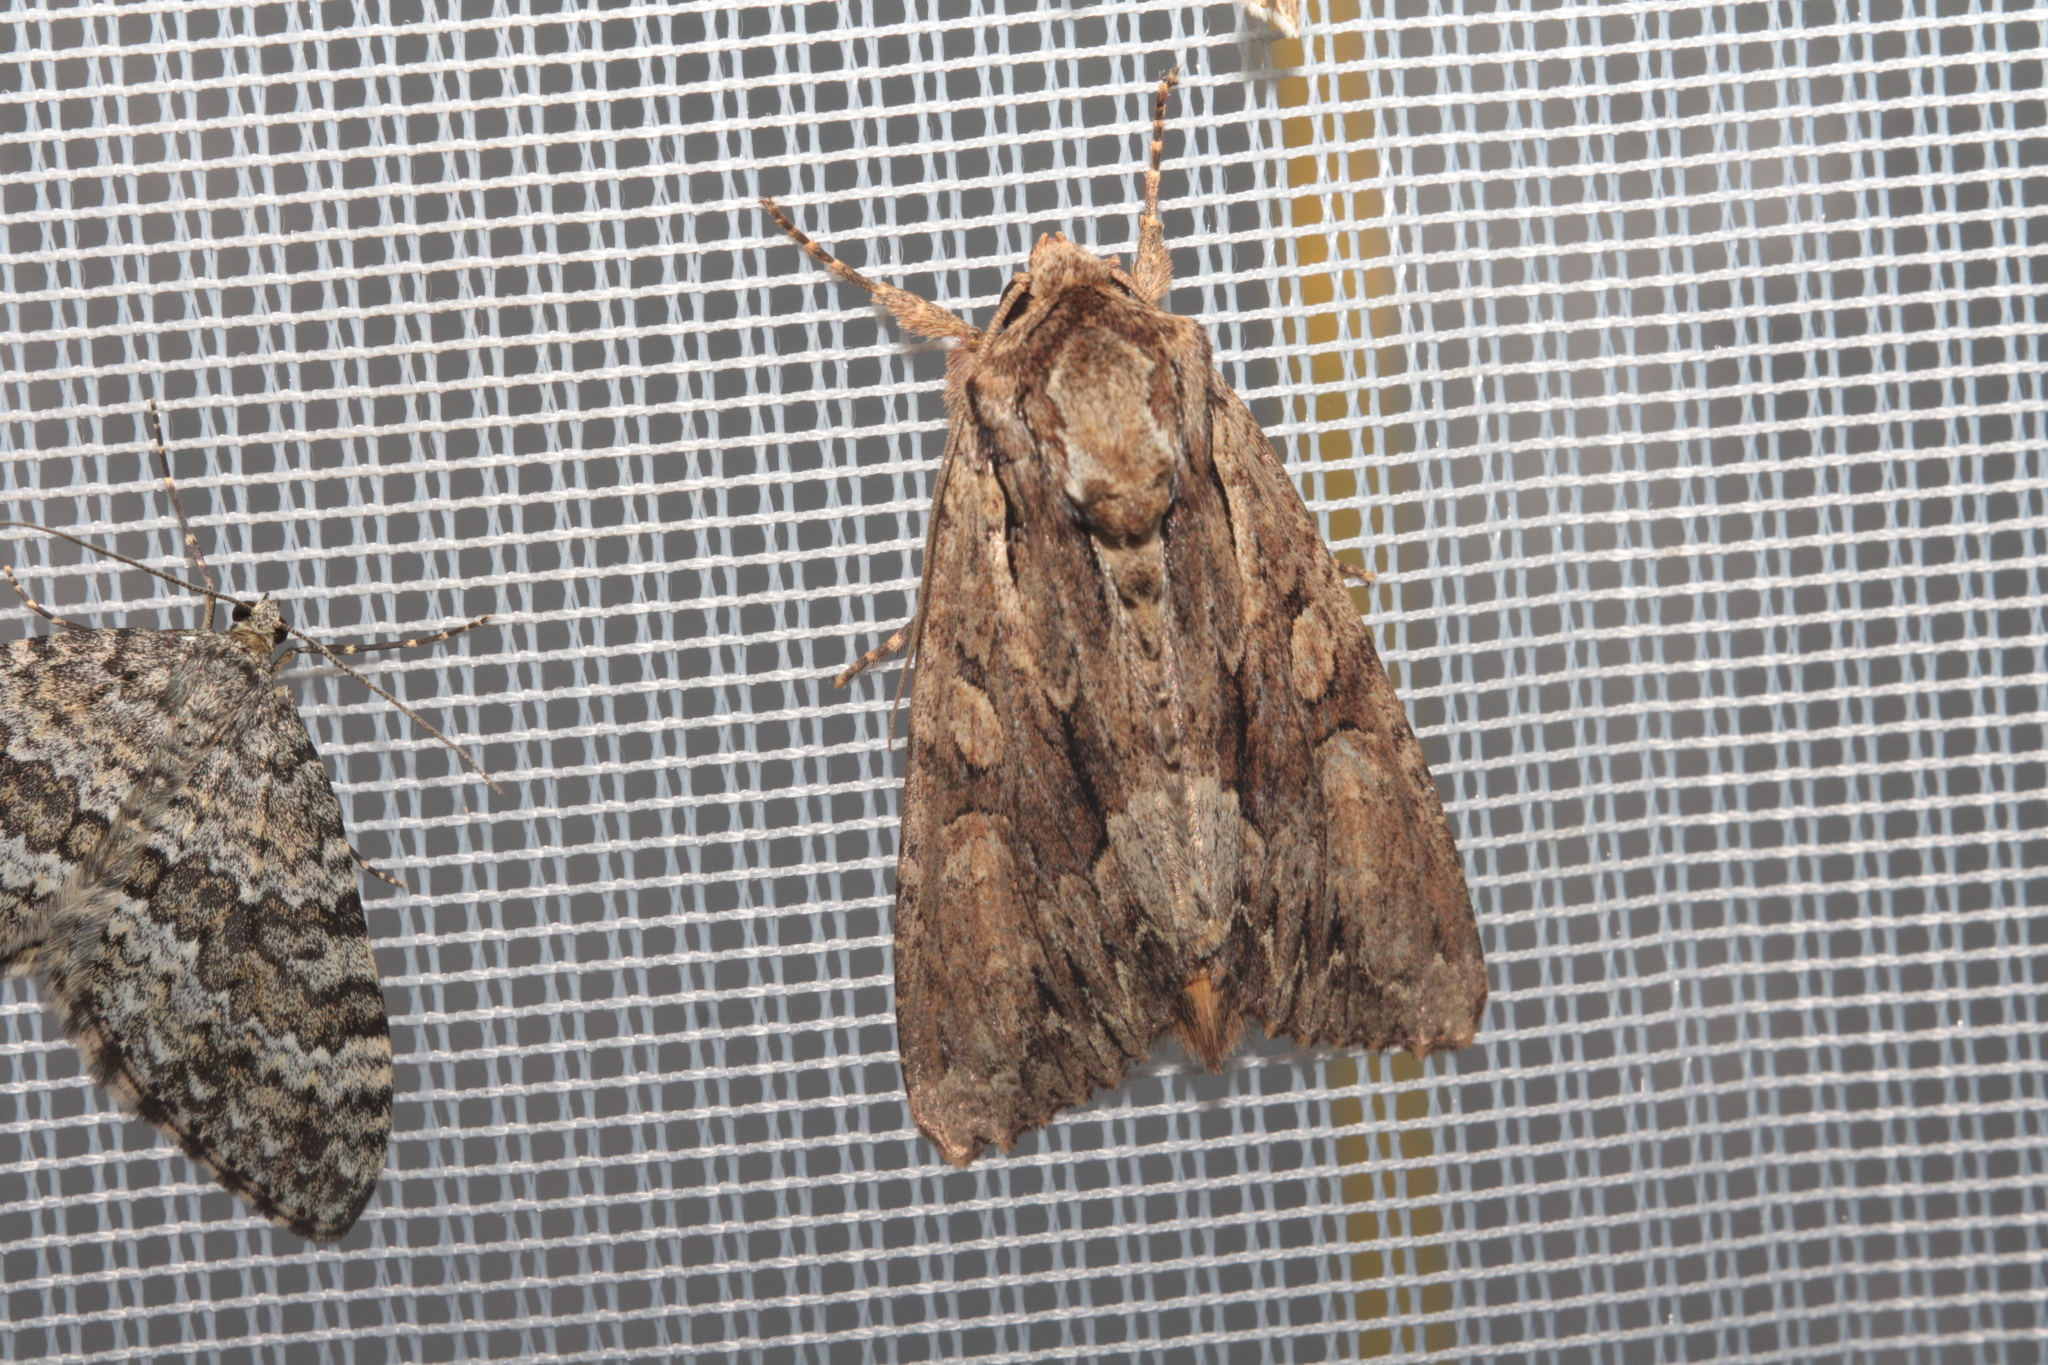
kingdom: Animalia
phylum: Arthropoda
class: Insecta
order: Lepidoptera
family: Noctuidae
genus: Apamea
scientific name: Apamea monoglypha
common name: Dark arches
